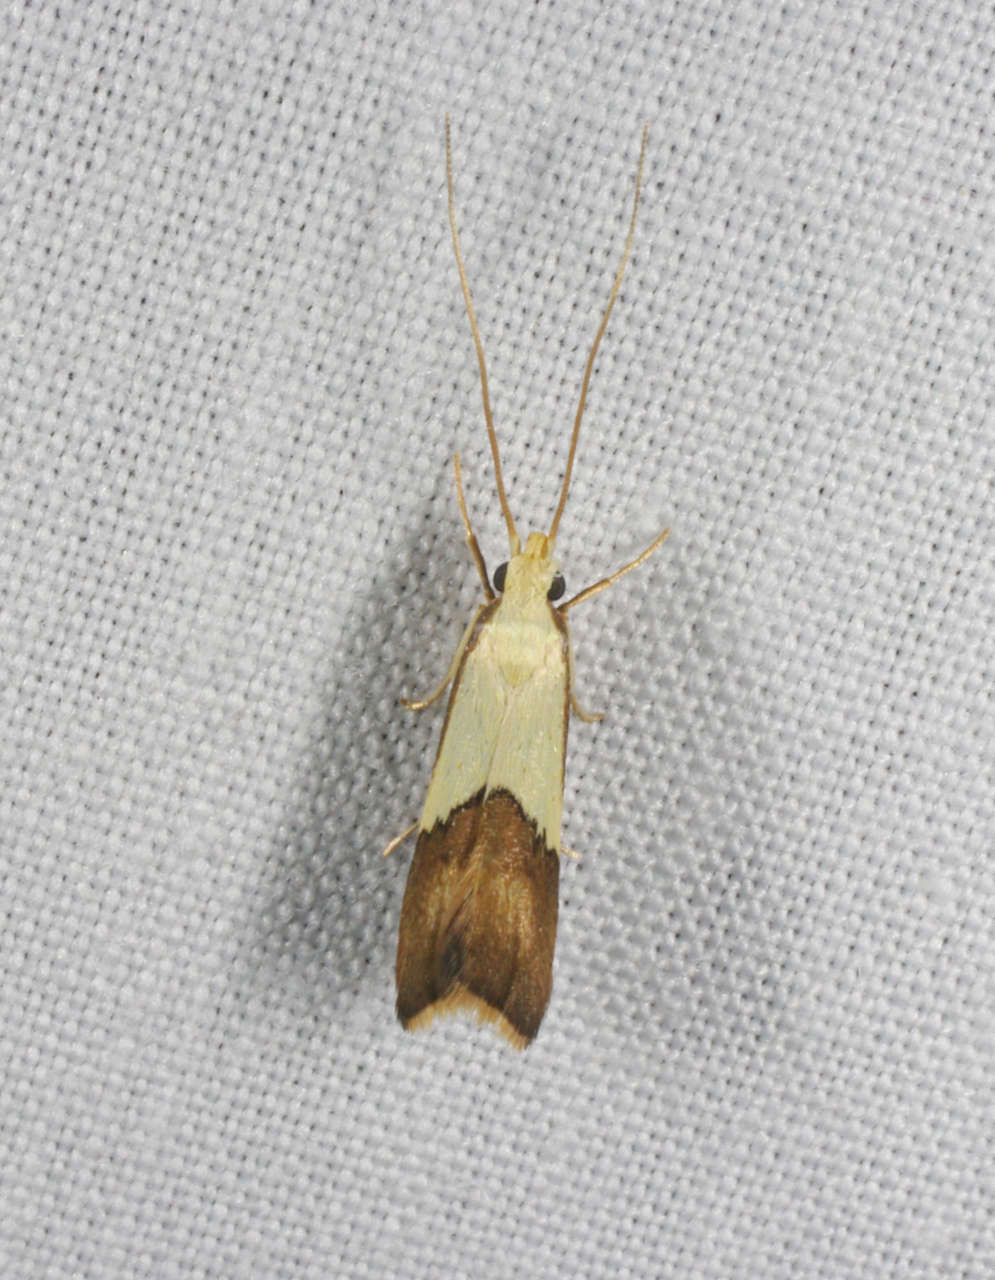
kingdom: Animalia
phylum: Arthropoda
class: Insecta
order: Lepidoptera
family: Lecithoceridae
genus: Crocanthes
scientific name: Crocanthes glycina
